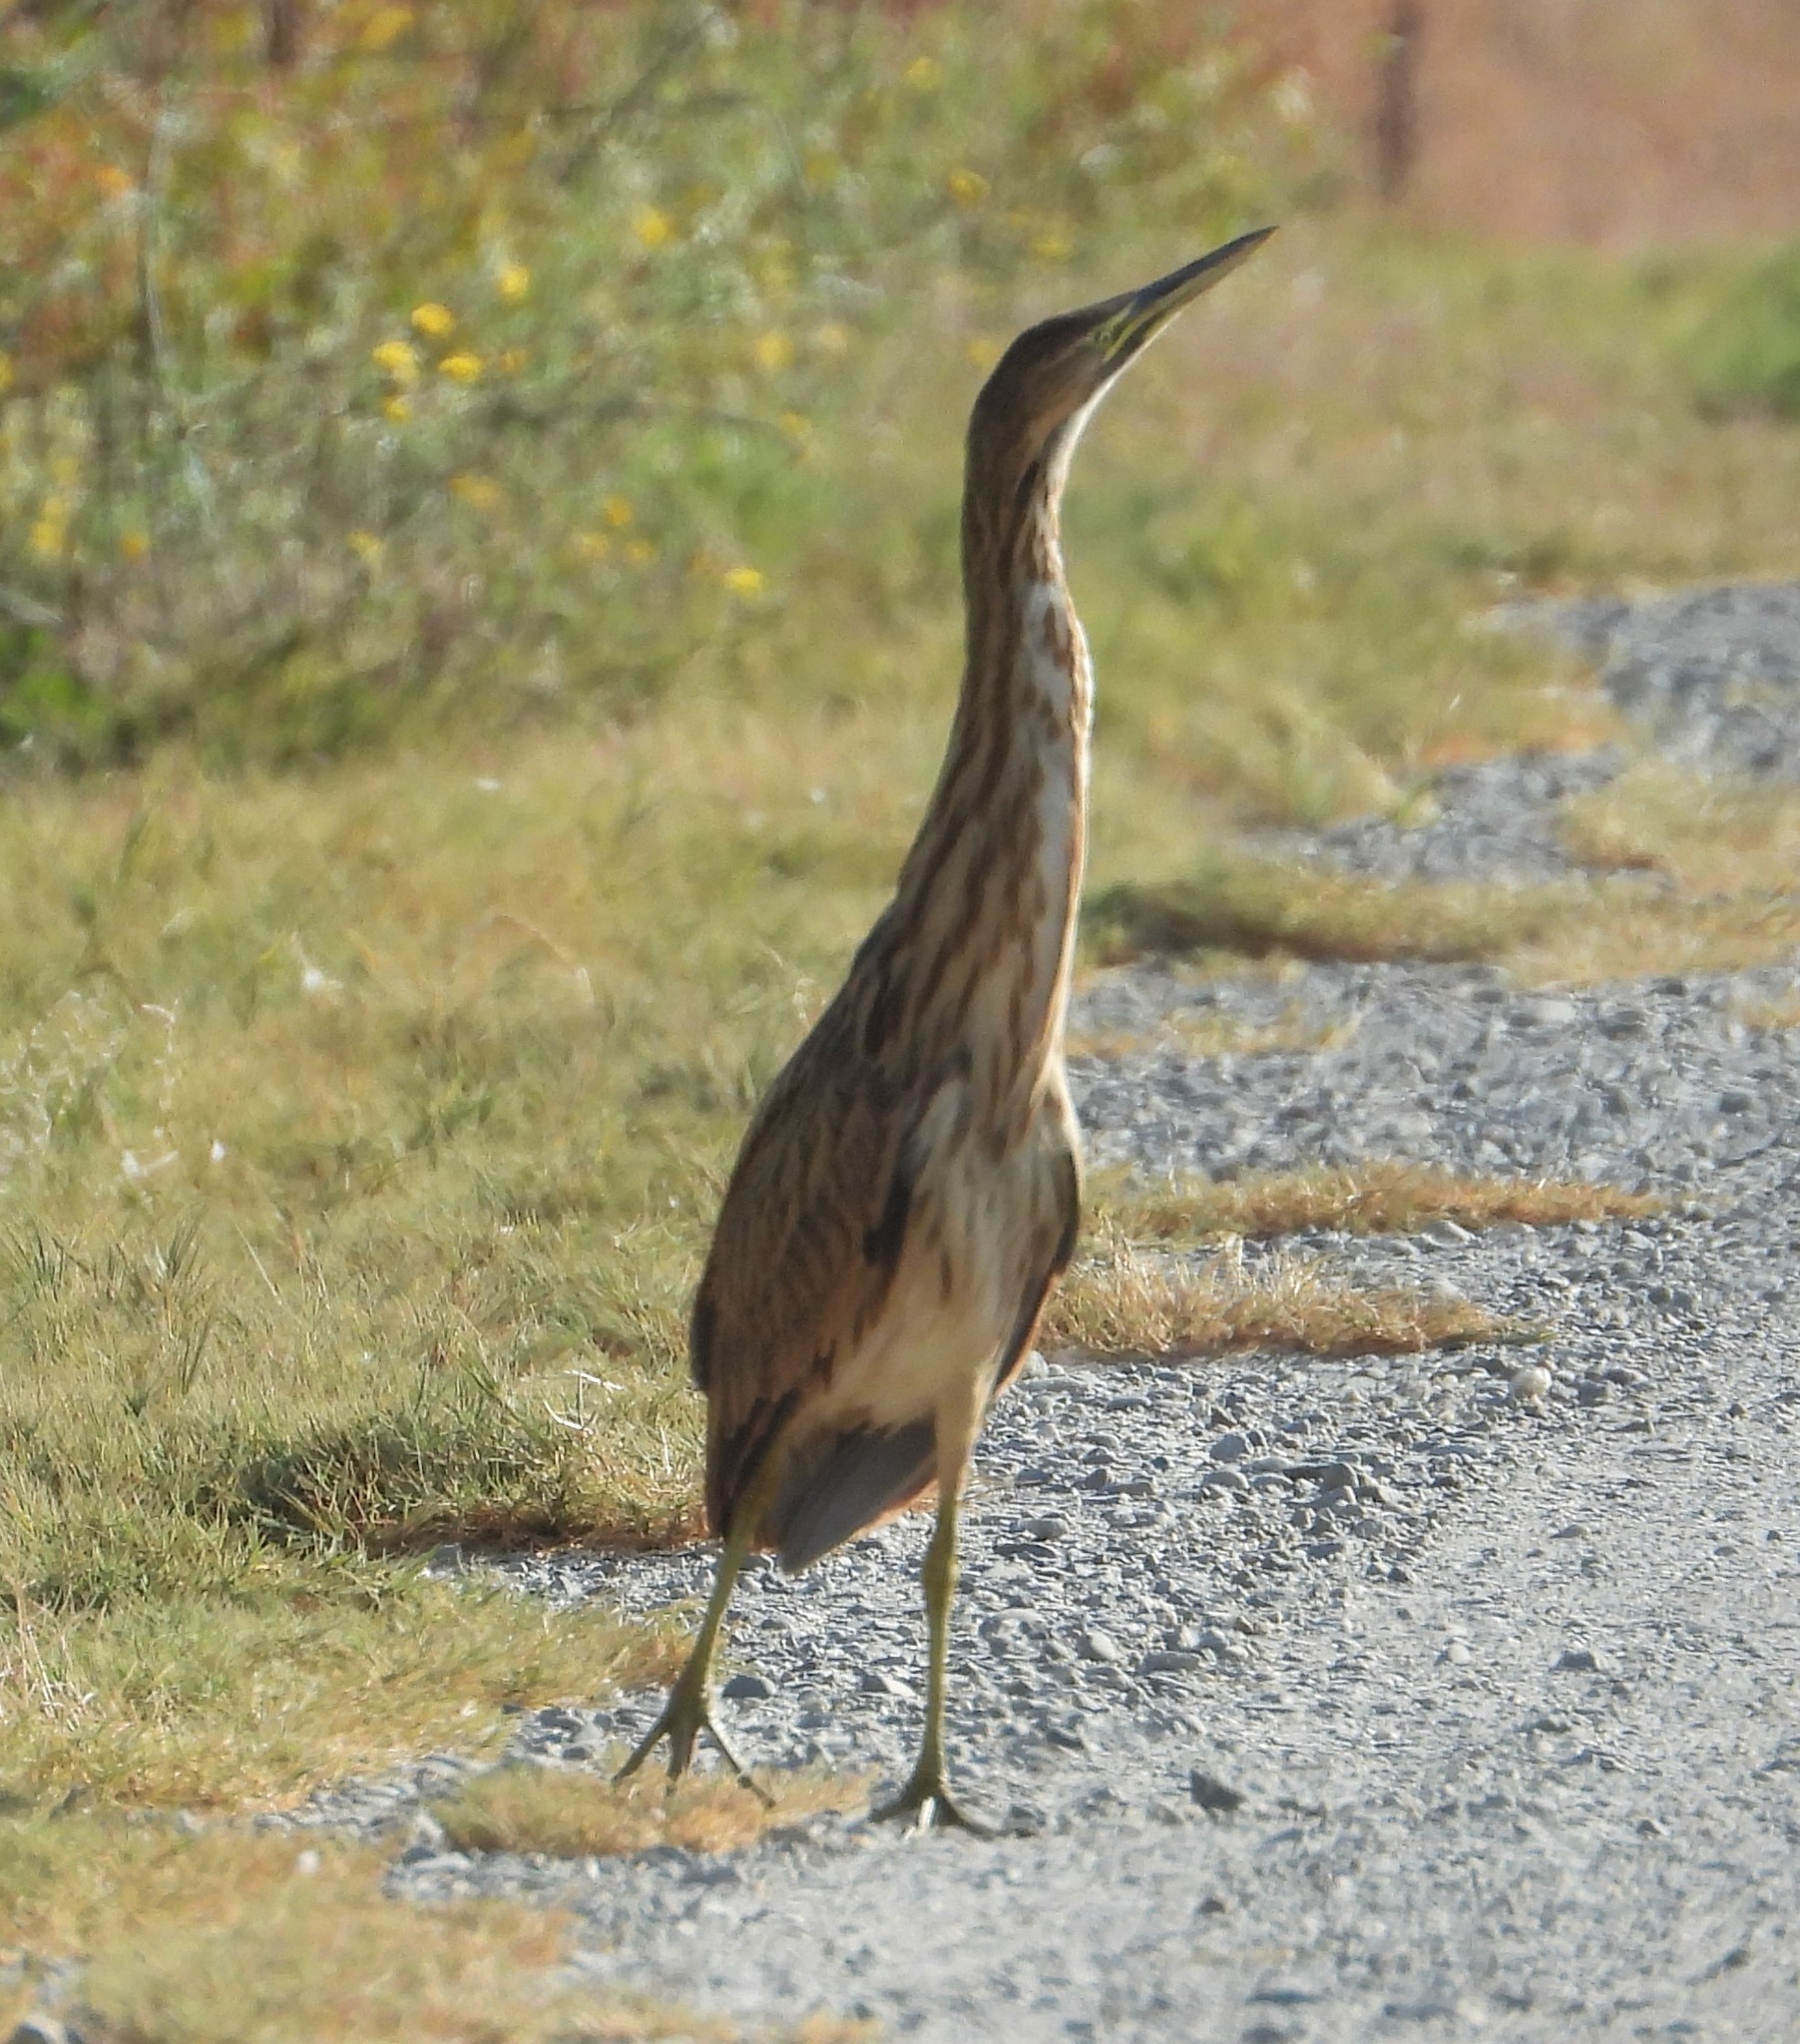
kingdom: Animalia
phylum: Chordata
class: Aves
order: Pelecaniformes
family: Ardeidae
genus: Botaurus
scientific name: Botaurus lentiginosus
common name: American bittern
